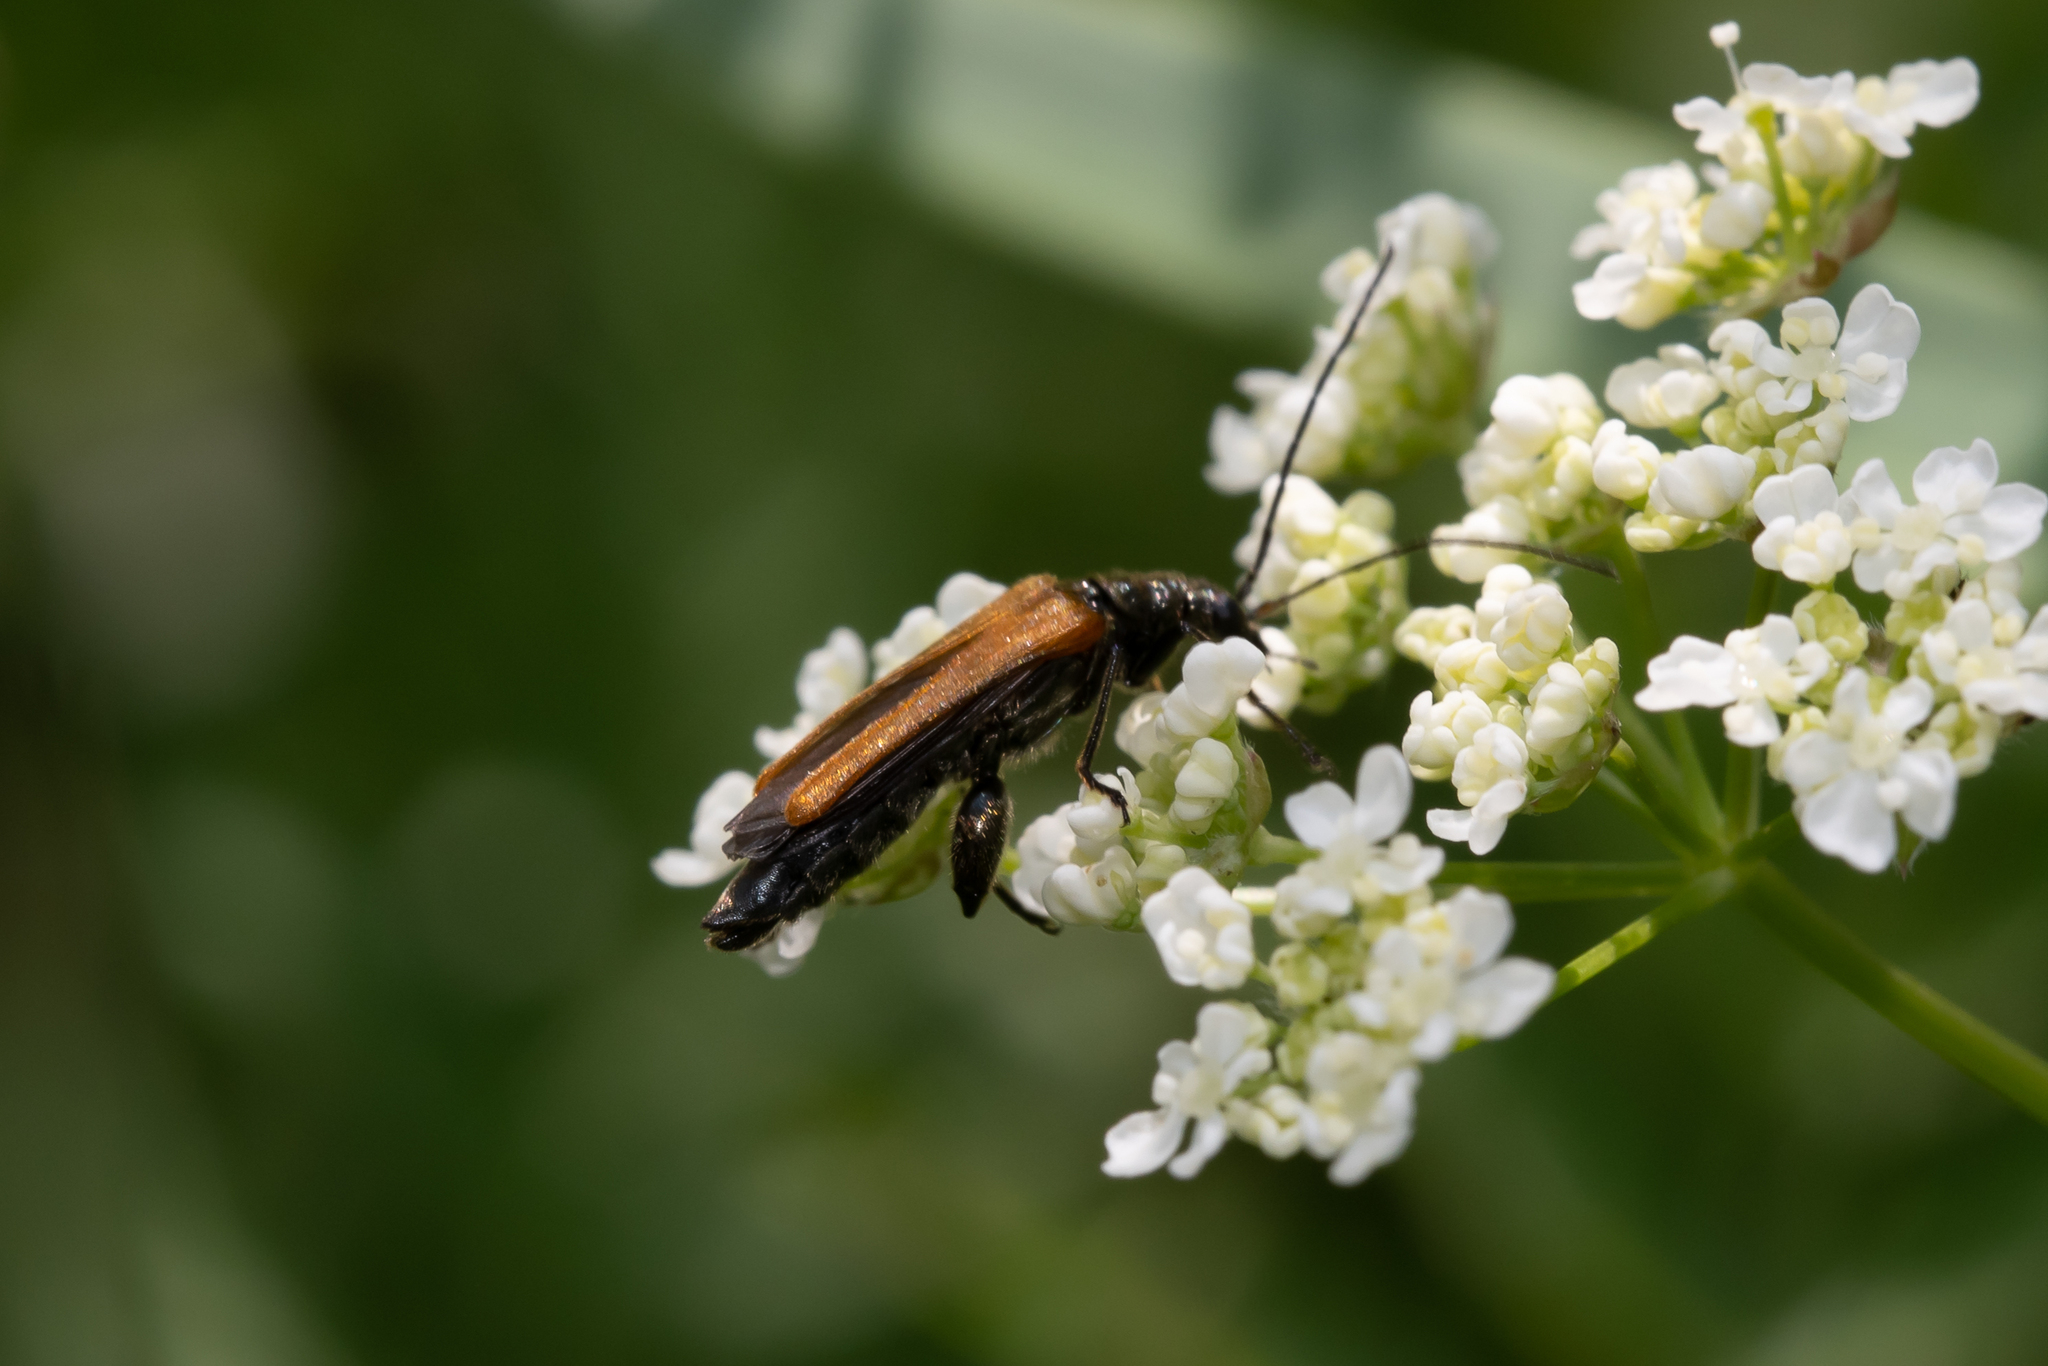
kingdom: Animalia
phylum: Arthropoda
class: Insecta
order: Coleoptera
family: Oedemeridae
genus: Oedemera
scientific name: Oedemera femorata
